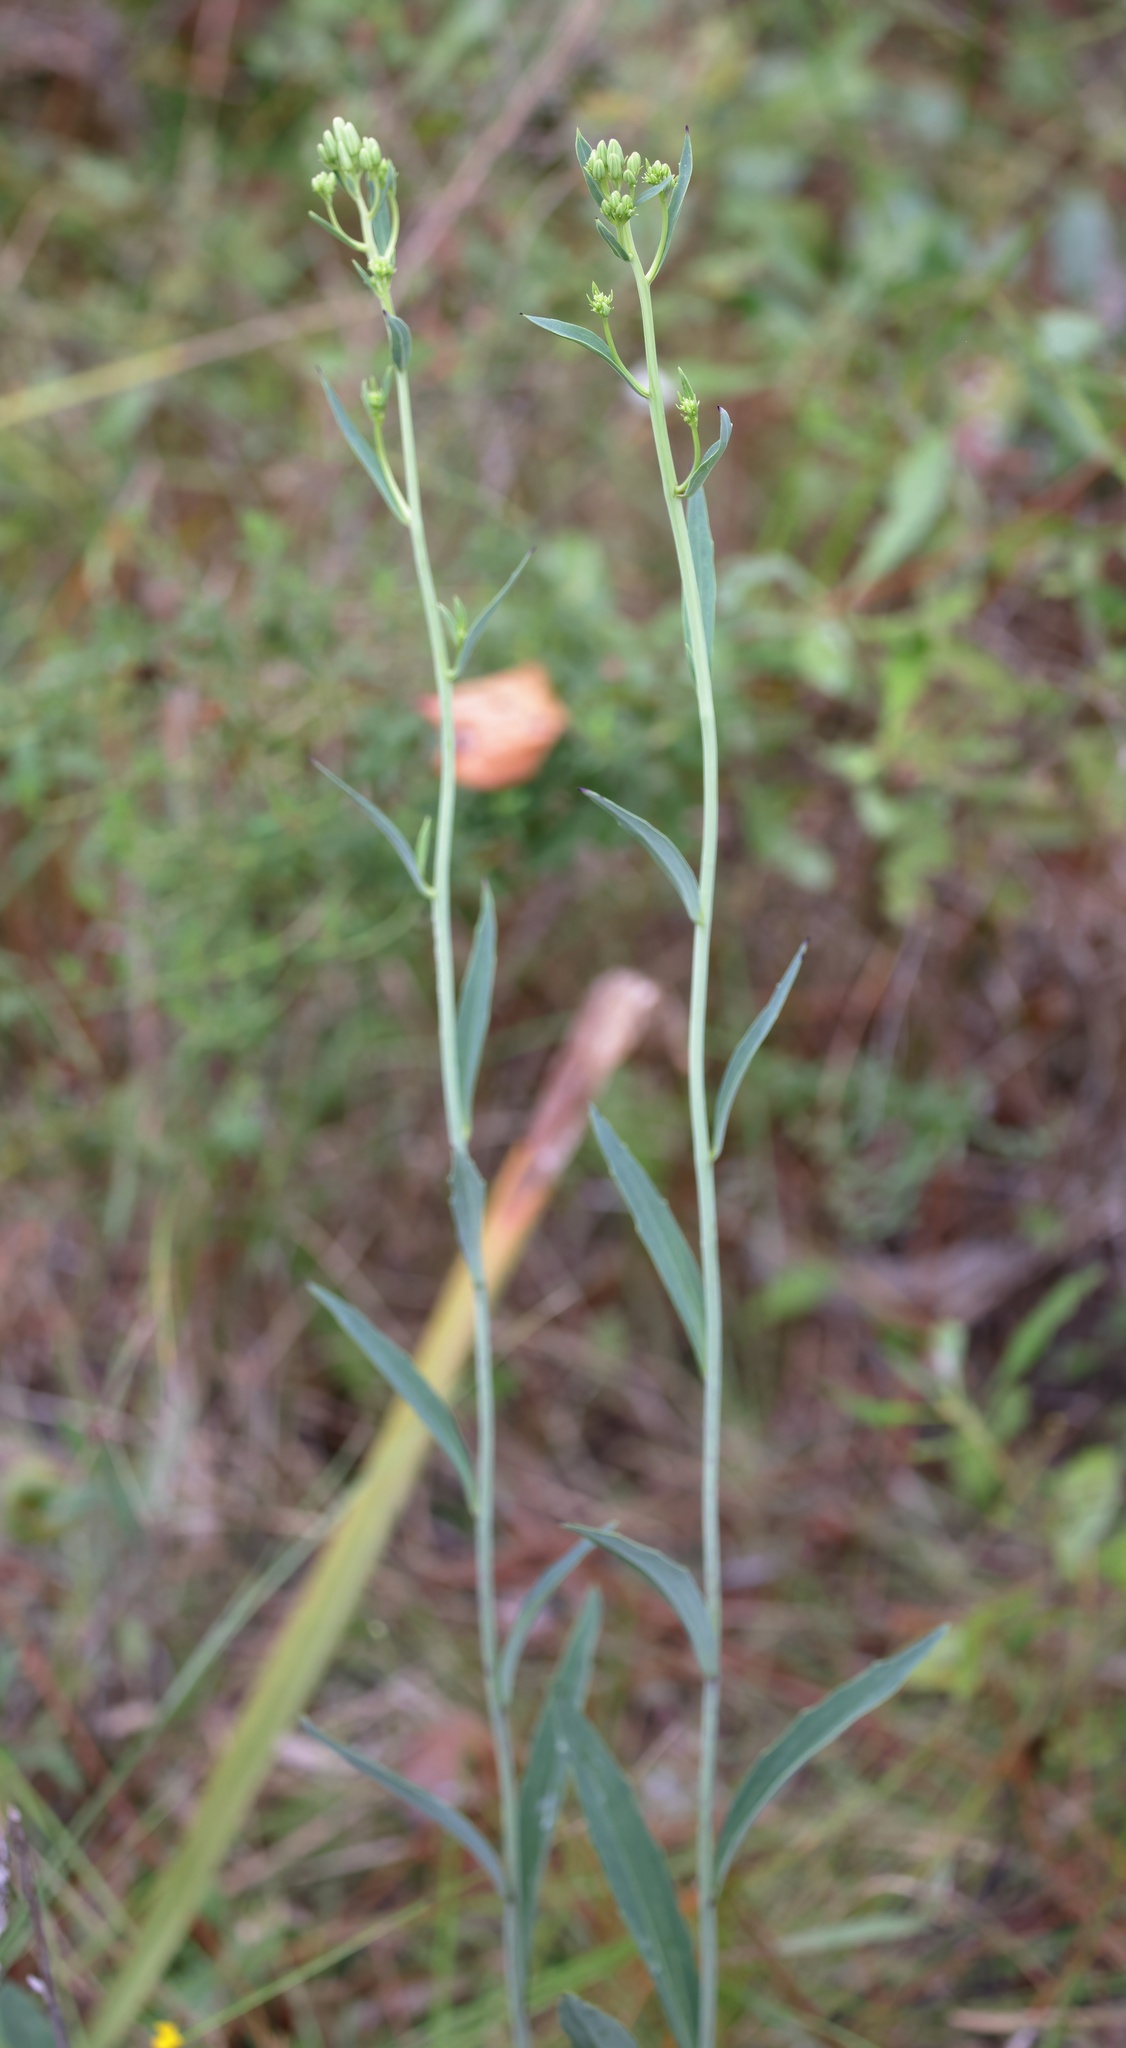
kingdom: Plantae
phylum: Tracheophyta
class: Magnoliopsida
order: Asterales
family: Asteraceae
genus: Arnoglossum
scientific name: Arnoglossum ovatum
